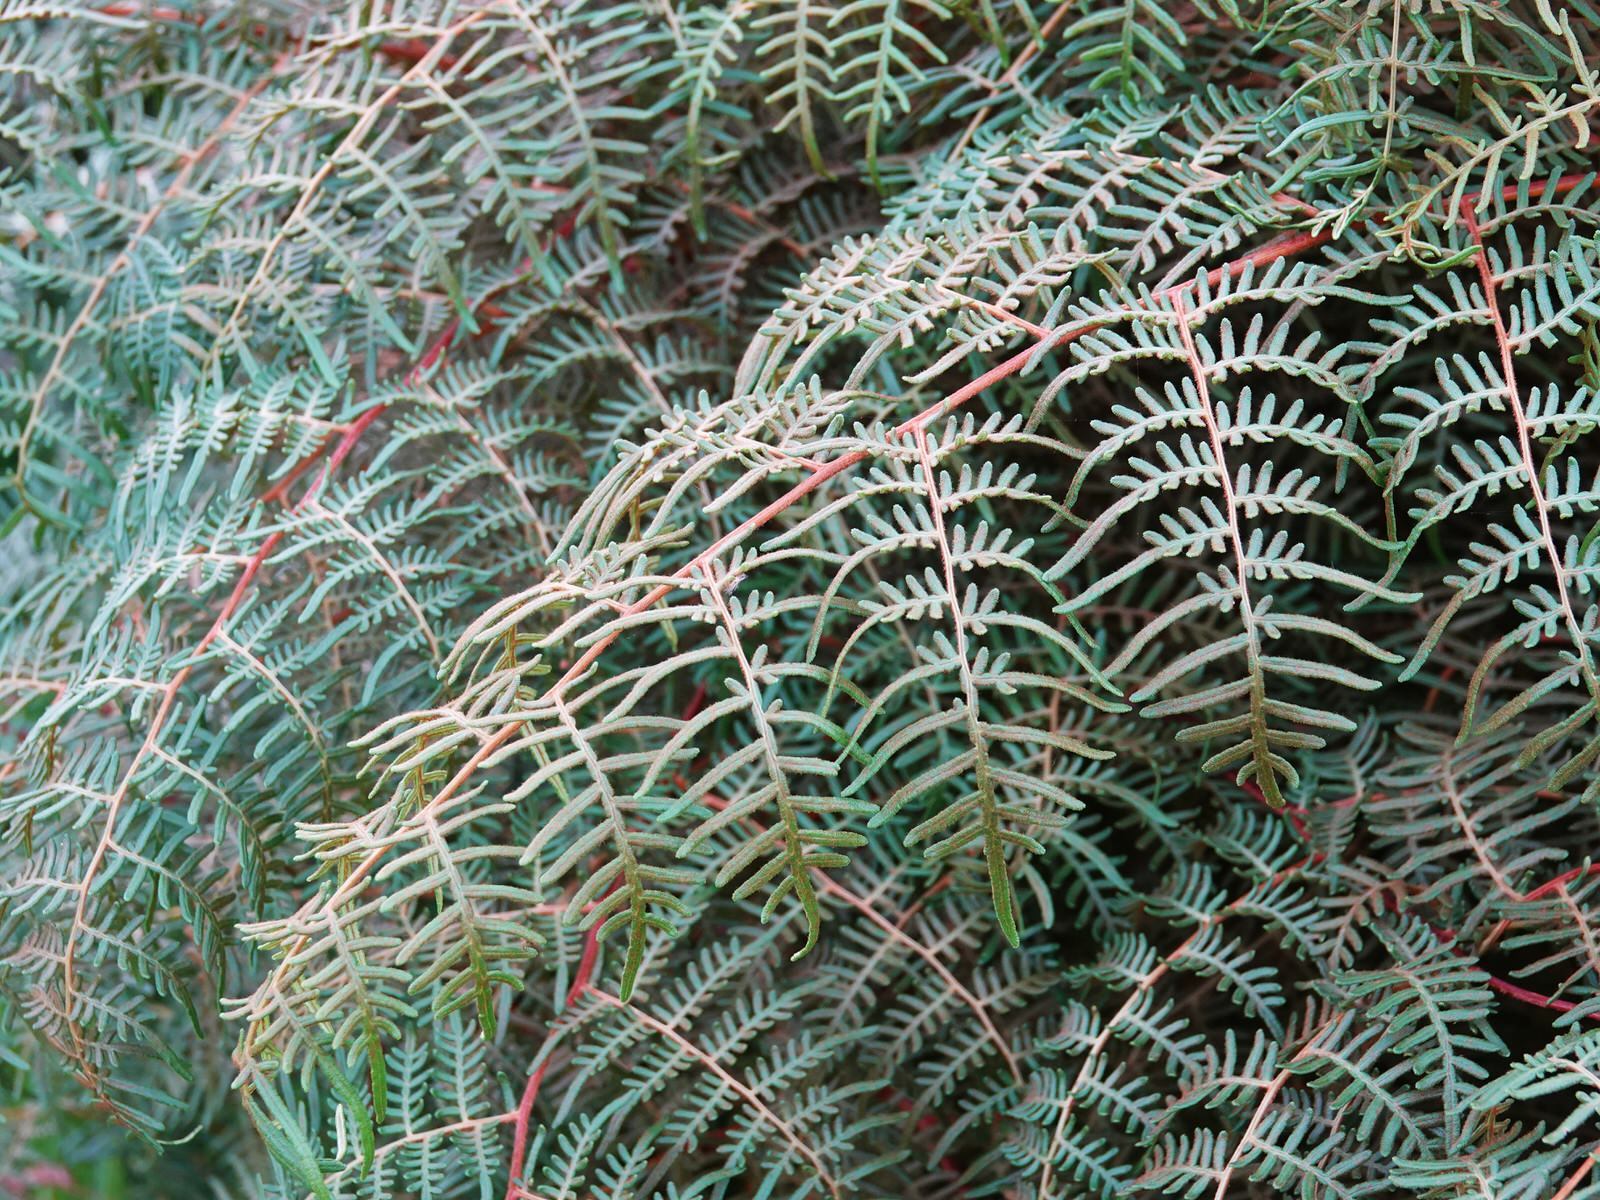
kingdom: Plantae
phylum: Tracheophyta
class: Polypodiopsida
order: Polypodiales
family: Dennstaedtiaceae
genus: Pteridium
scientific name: Pteridium esculentum
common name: Bracken fern
